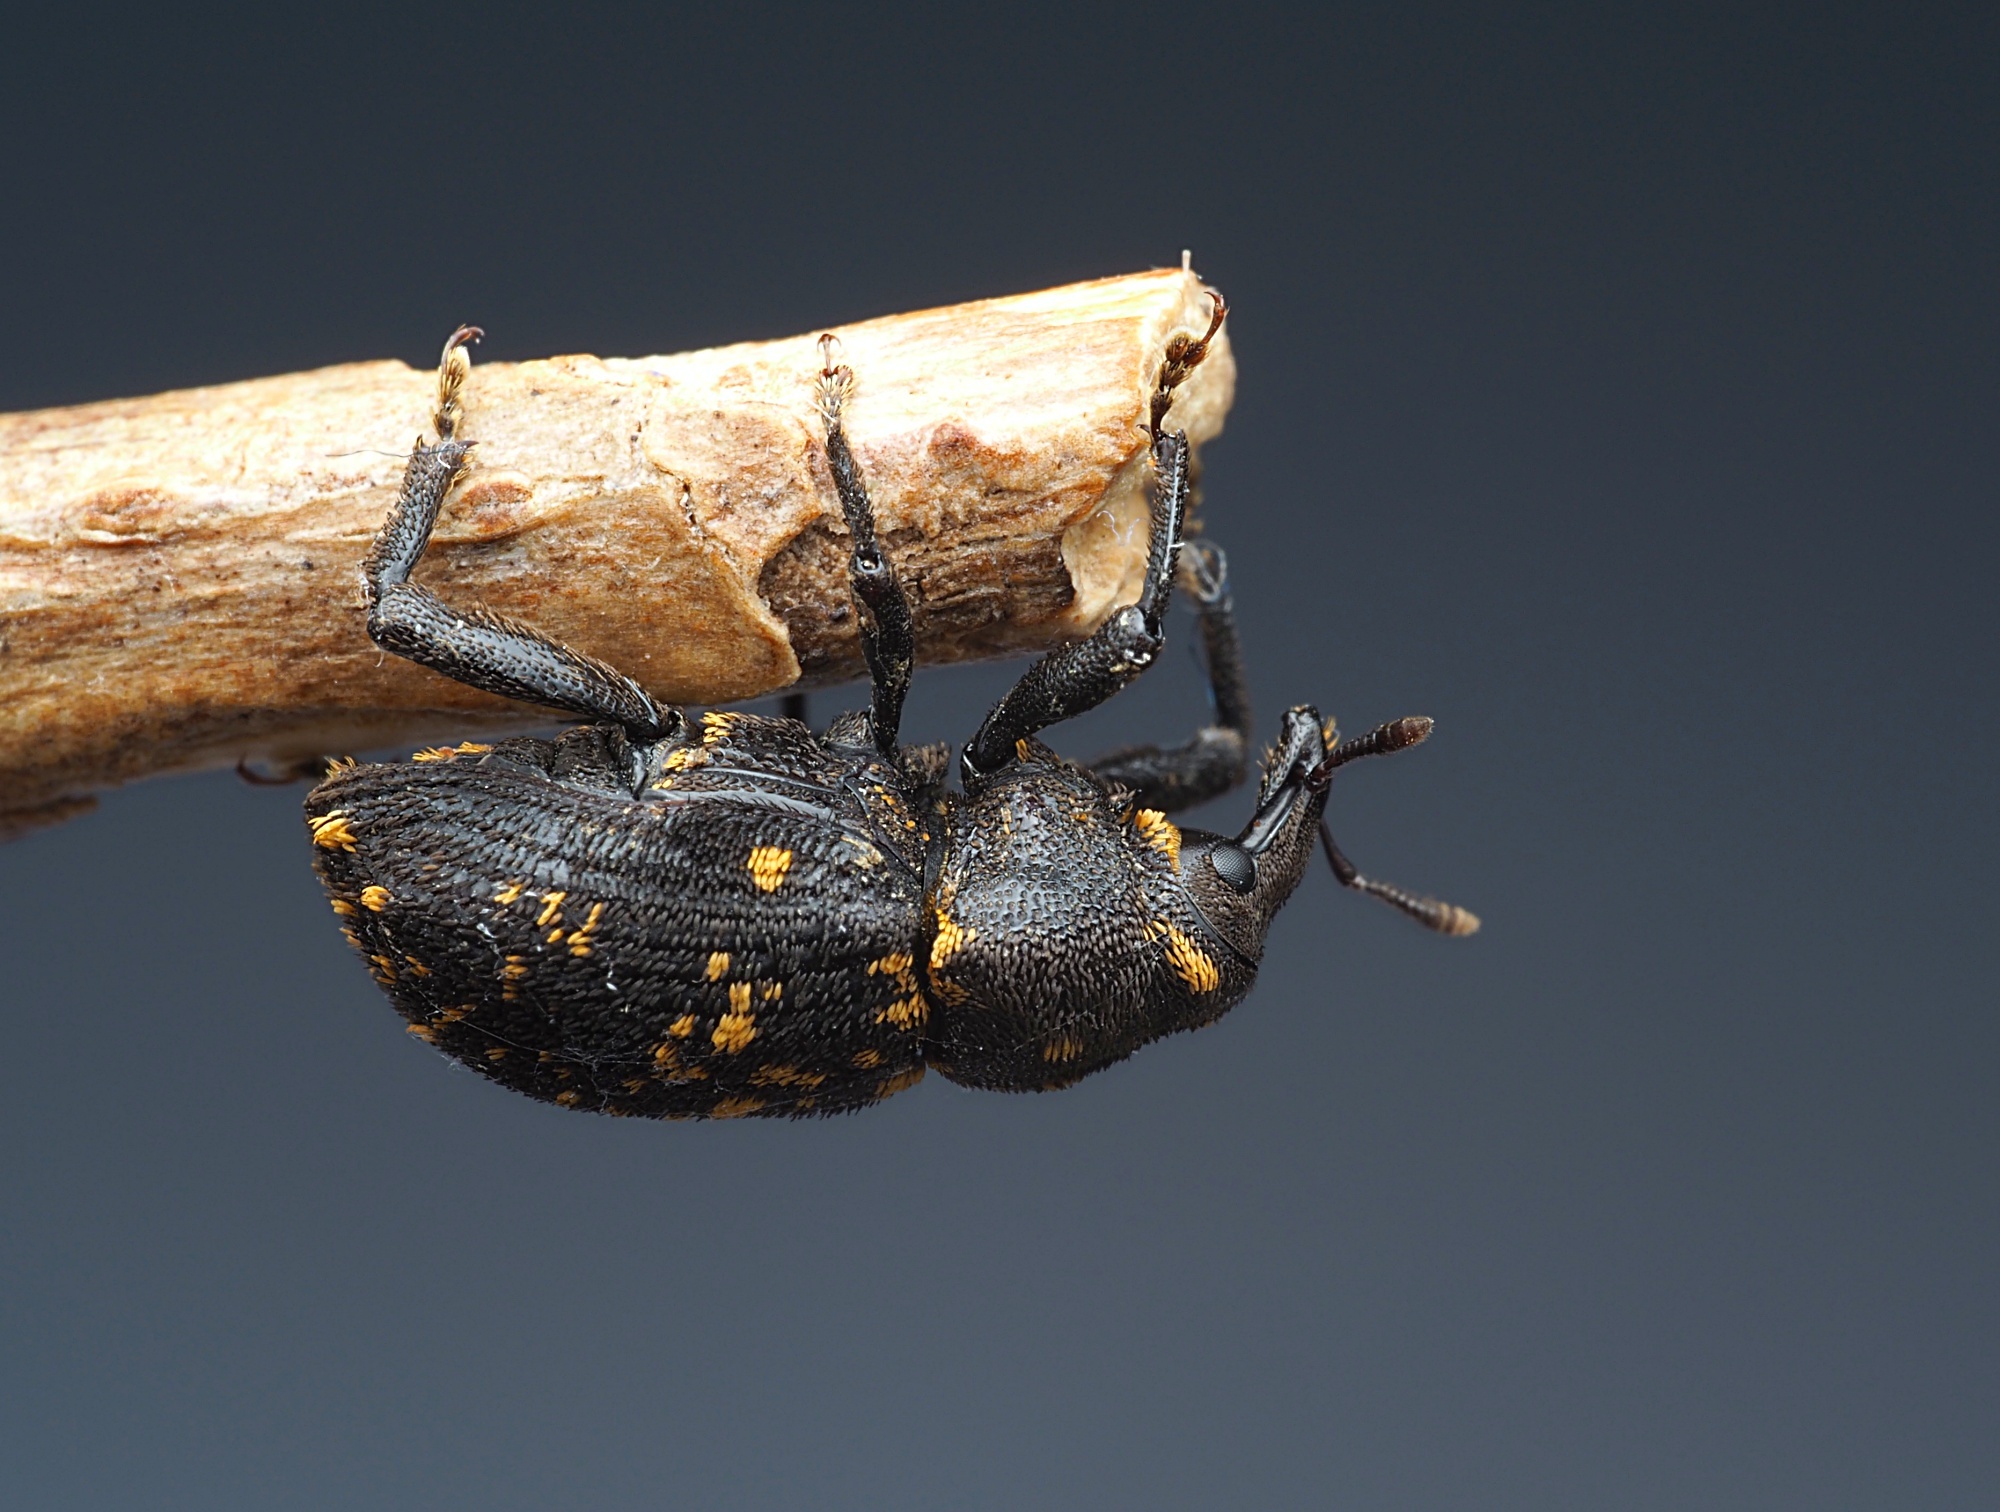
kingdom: Animalia
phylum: Arthropoda
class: Insecta
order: Coleoptera
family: Curculionidae
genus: Oreda
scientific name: Oreda notata
